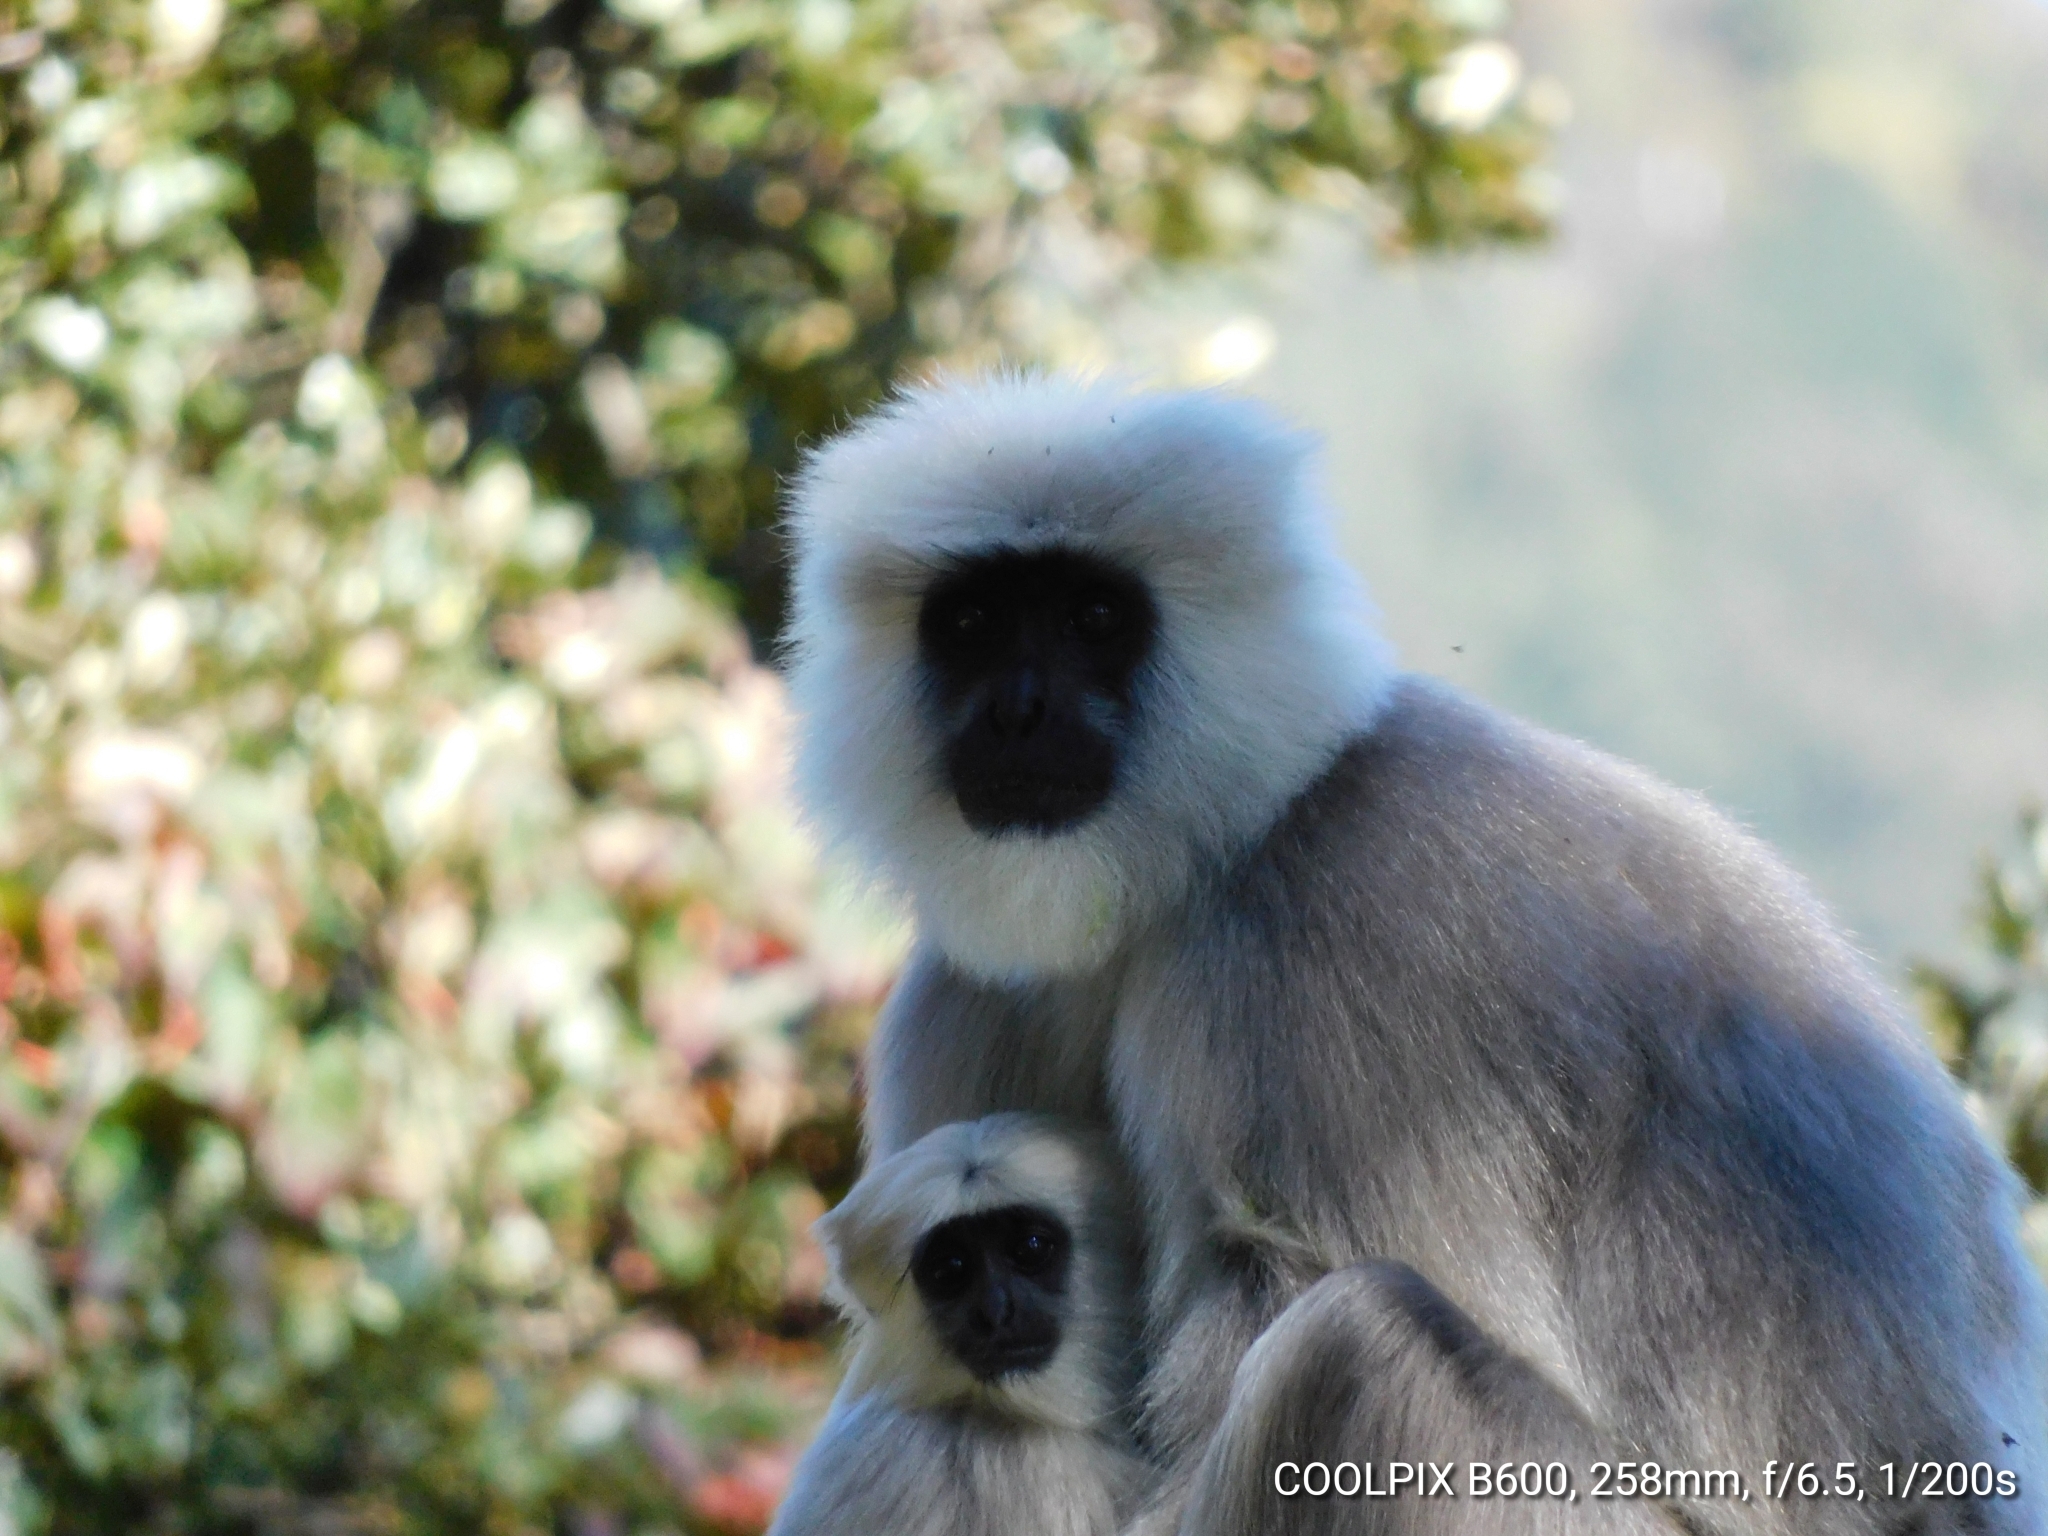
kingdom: Animalia
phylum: Chordata
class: Mammalia
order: Primates
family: Cercopithecidae
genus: Semnopithecus
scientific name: Semnopithecus schistaceus
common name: Nepal gray langur
